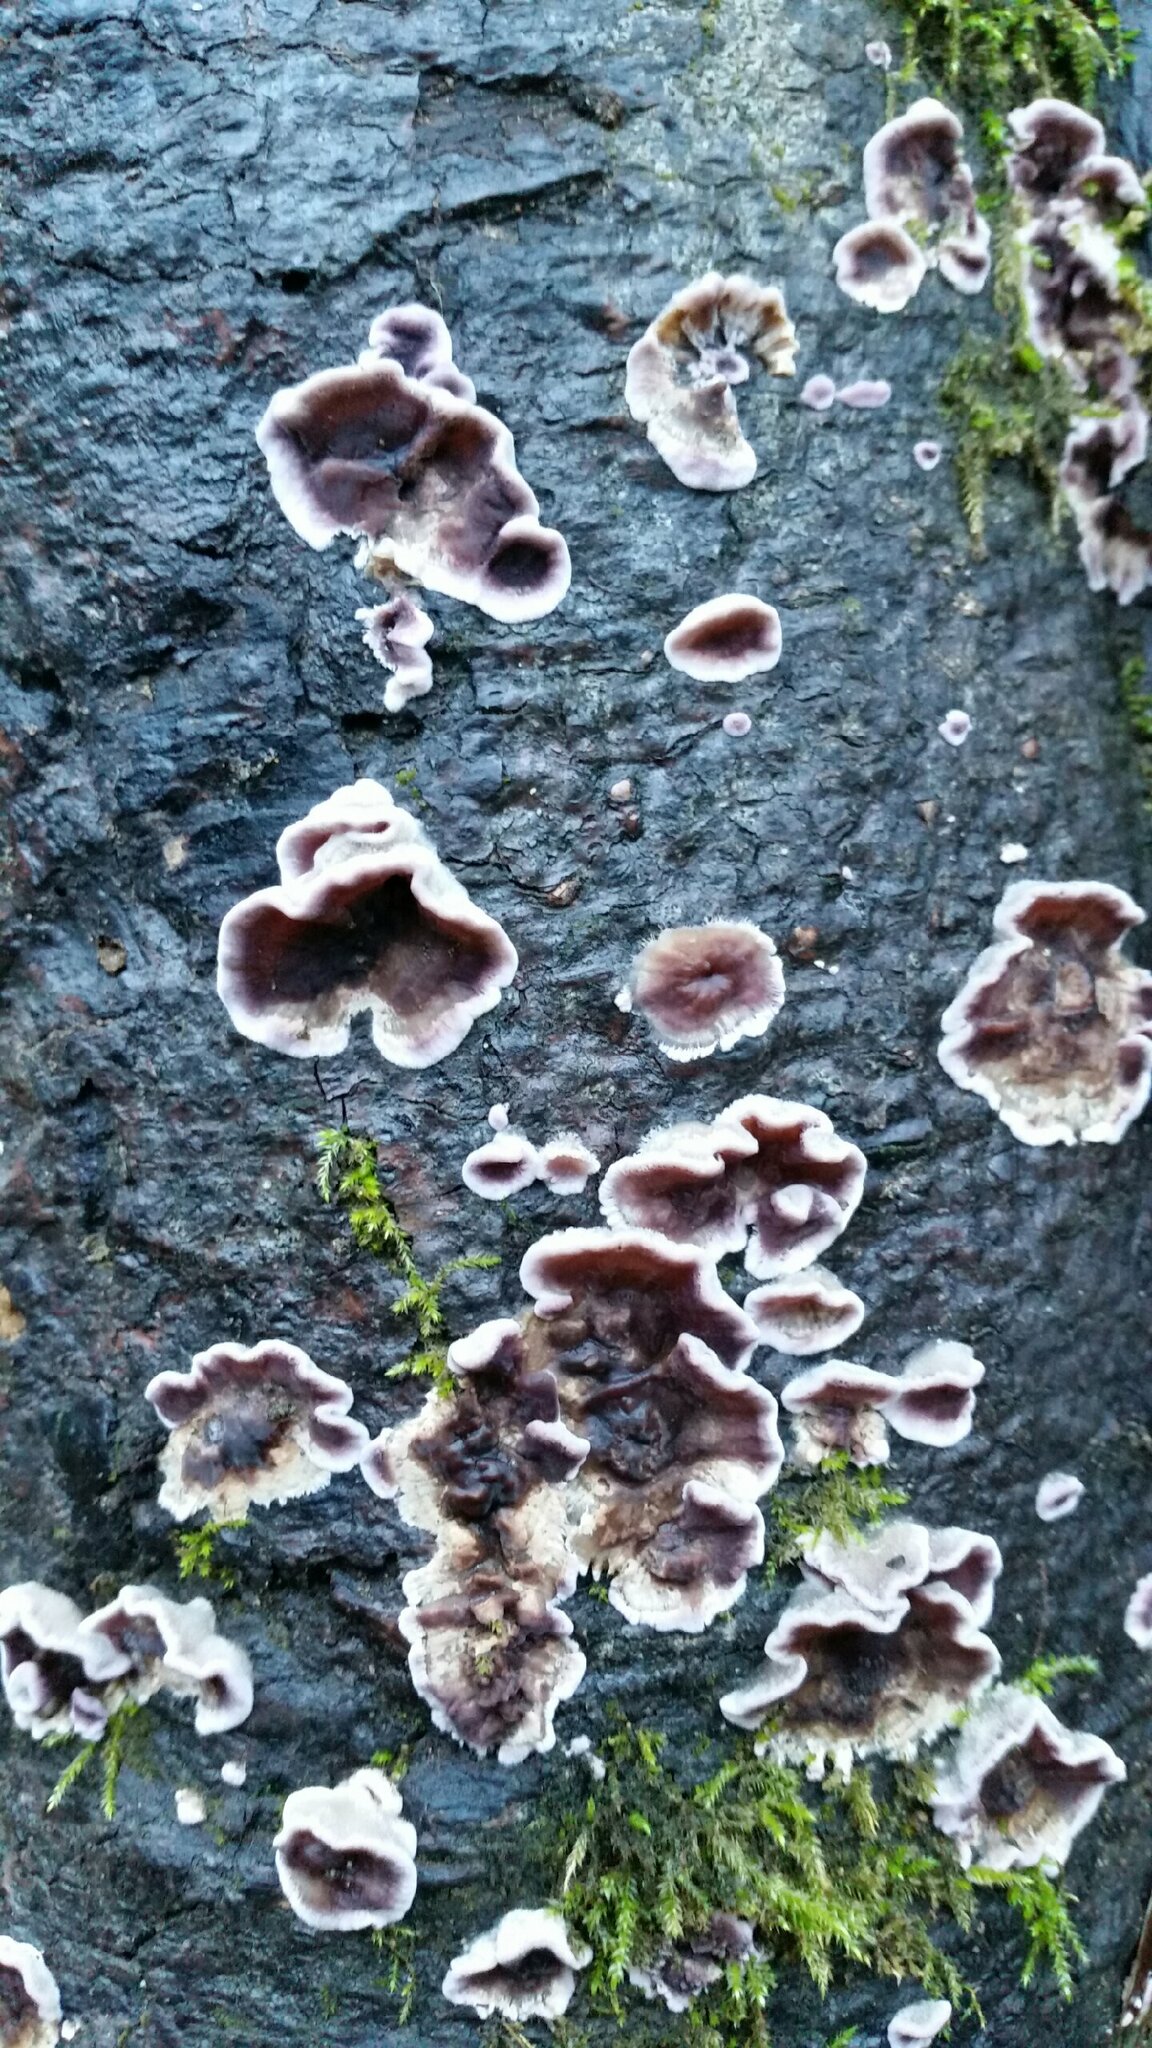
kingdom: Fungi
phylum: Basidiomycota
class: Agaricomycetes
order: Agaricales
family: Cyphellaceae
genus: Chondrostereum
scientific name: Chondrostereum purpureum
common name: Silver leaf disease
